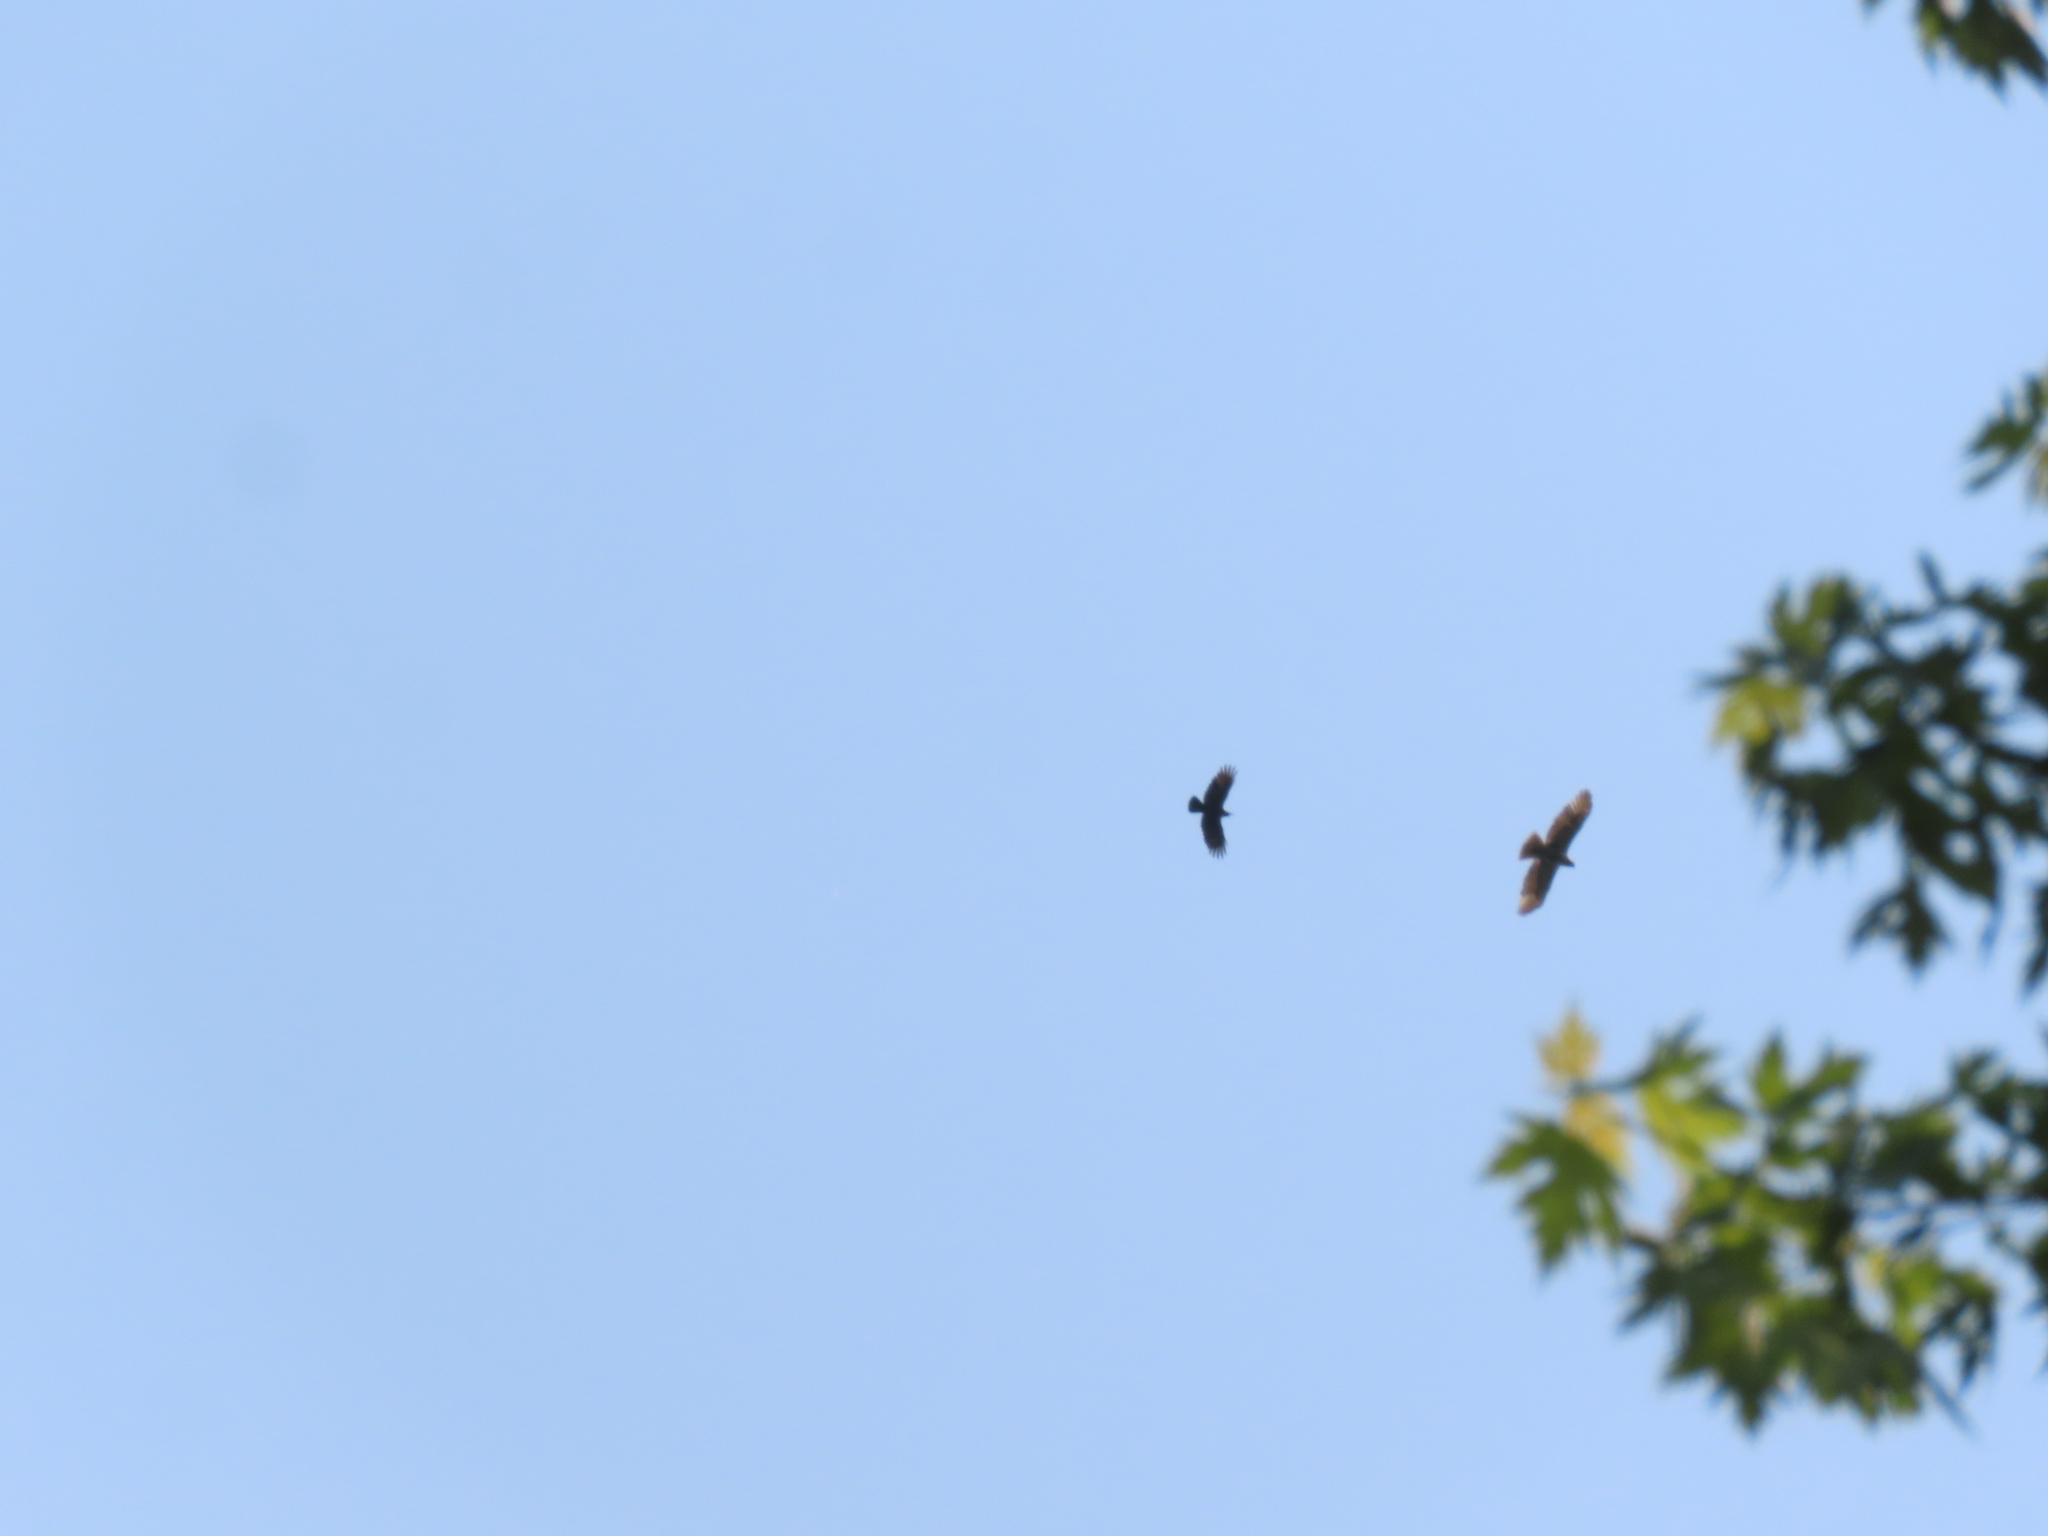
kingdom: Animalia
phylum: Chordata
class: Aves
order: Passeriformes
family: Corvidae
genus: Corvus
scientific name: Corvus brachyrhynchos
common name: American crow
